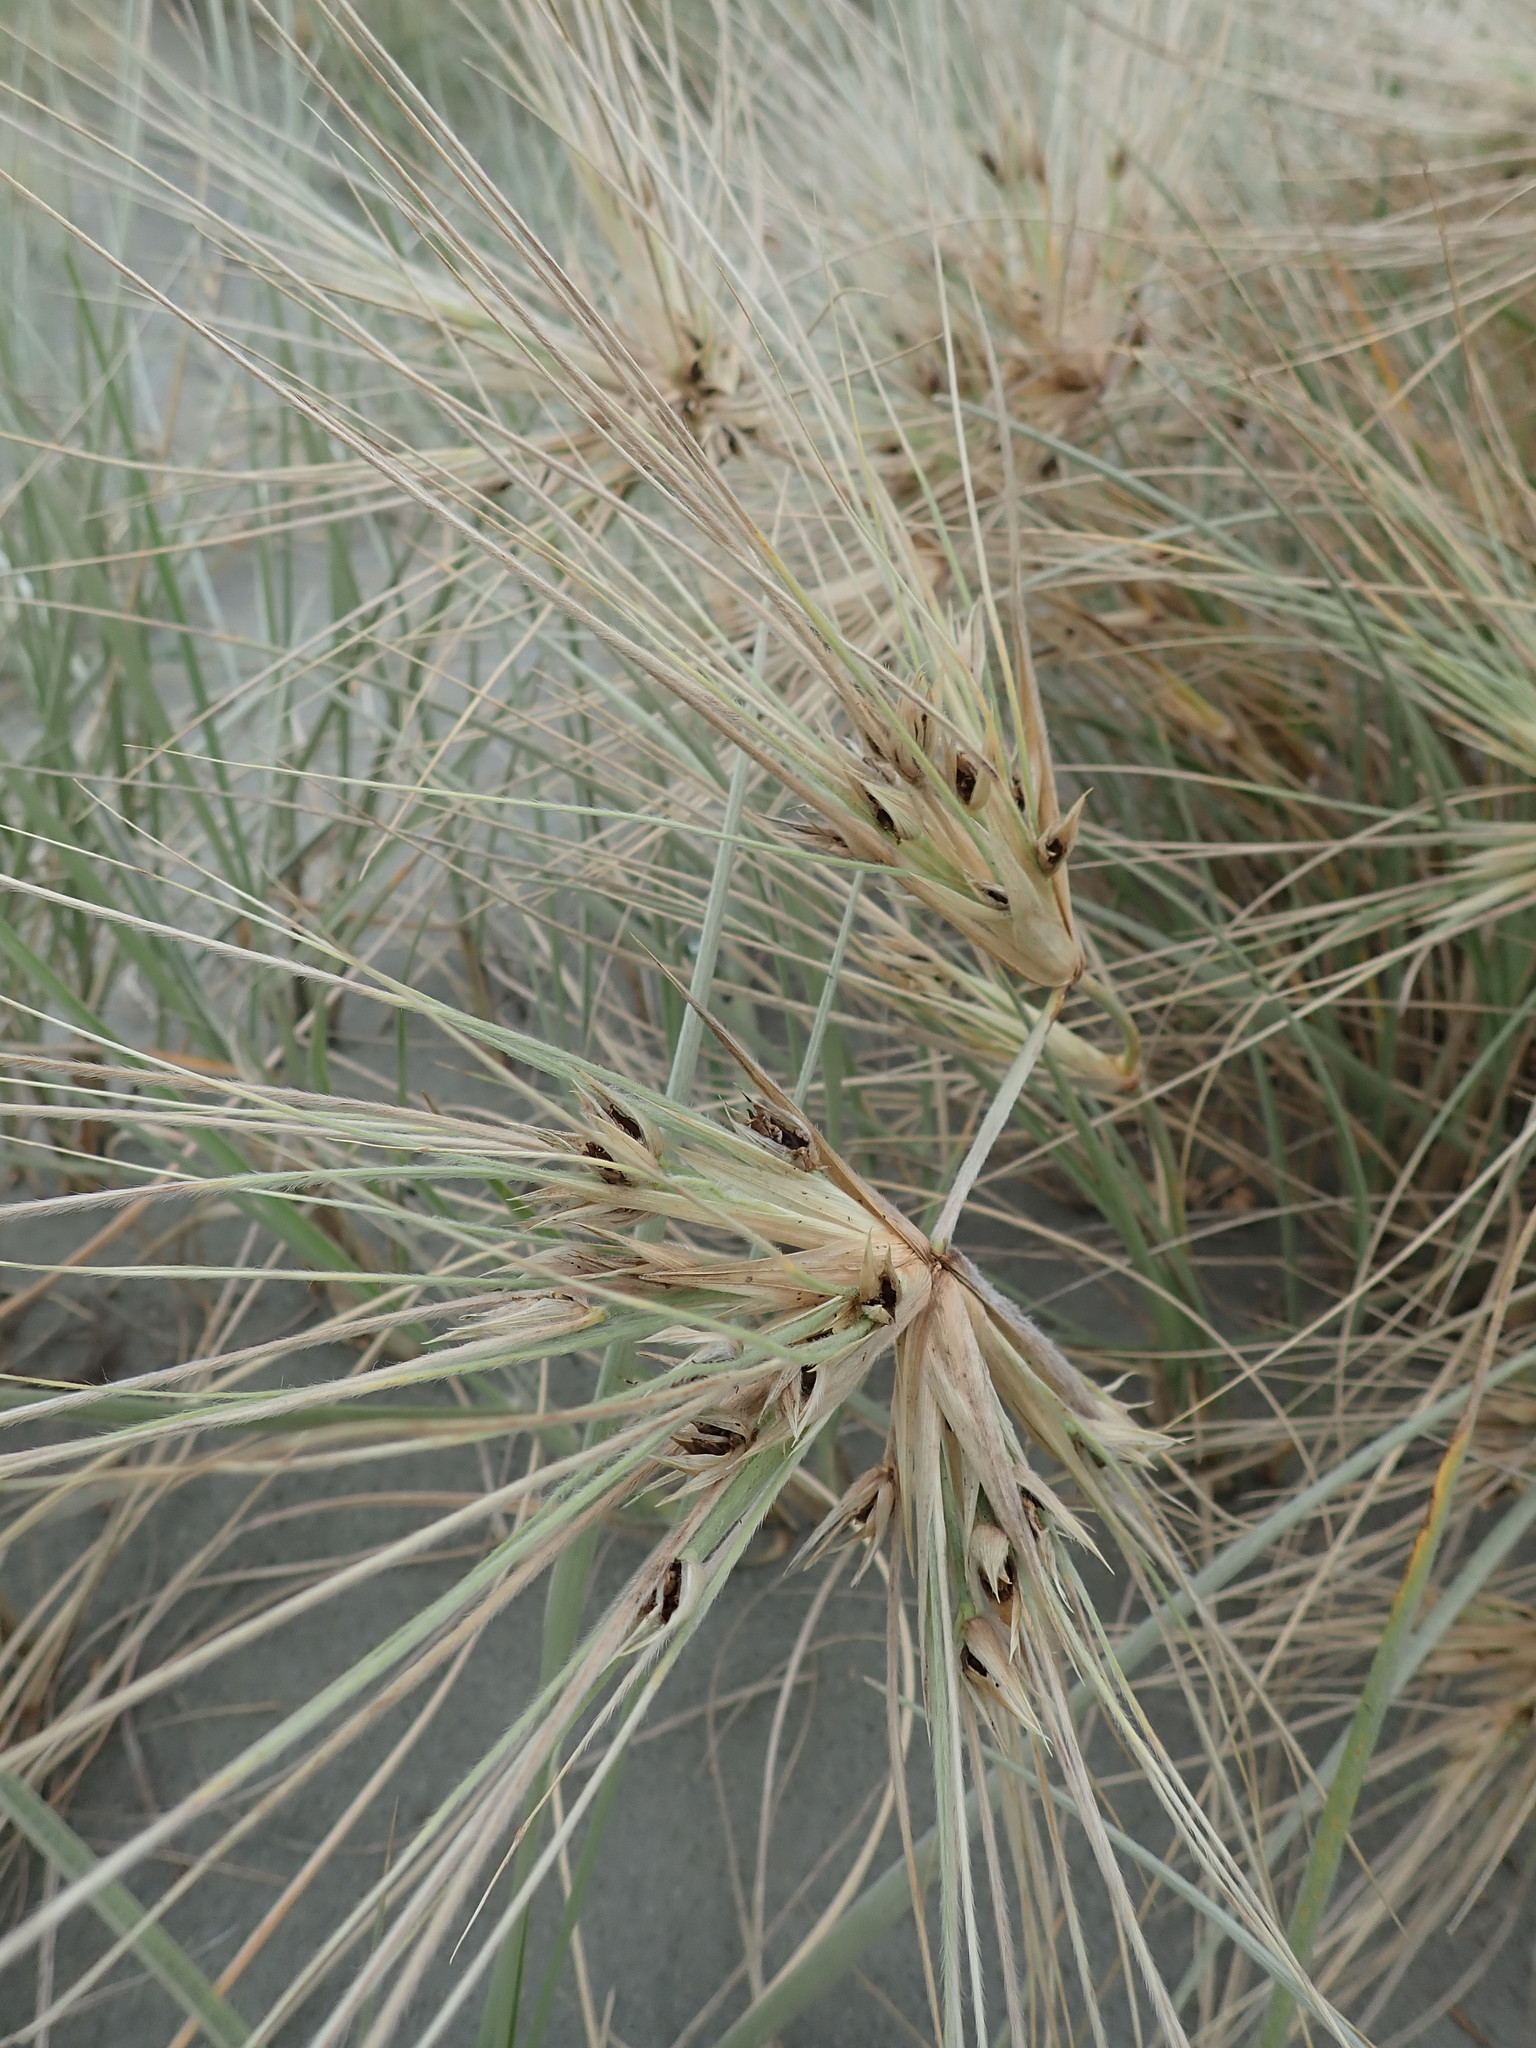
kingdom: Plantae
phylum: Tracheophyta
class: Liliopsida
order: Poales
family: Poaceae
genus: Spinifex
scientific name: Spinifex sericeus
